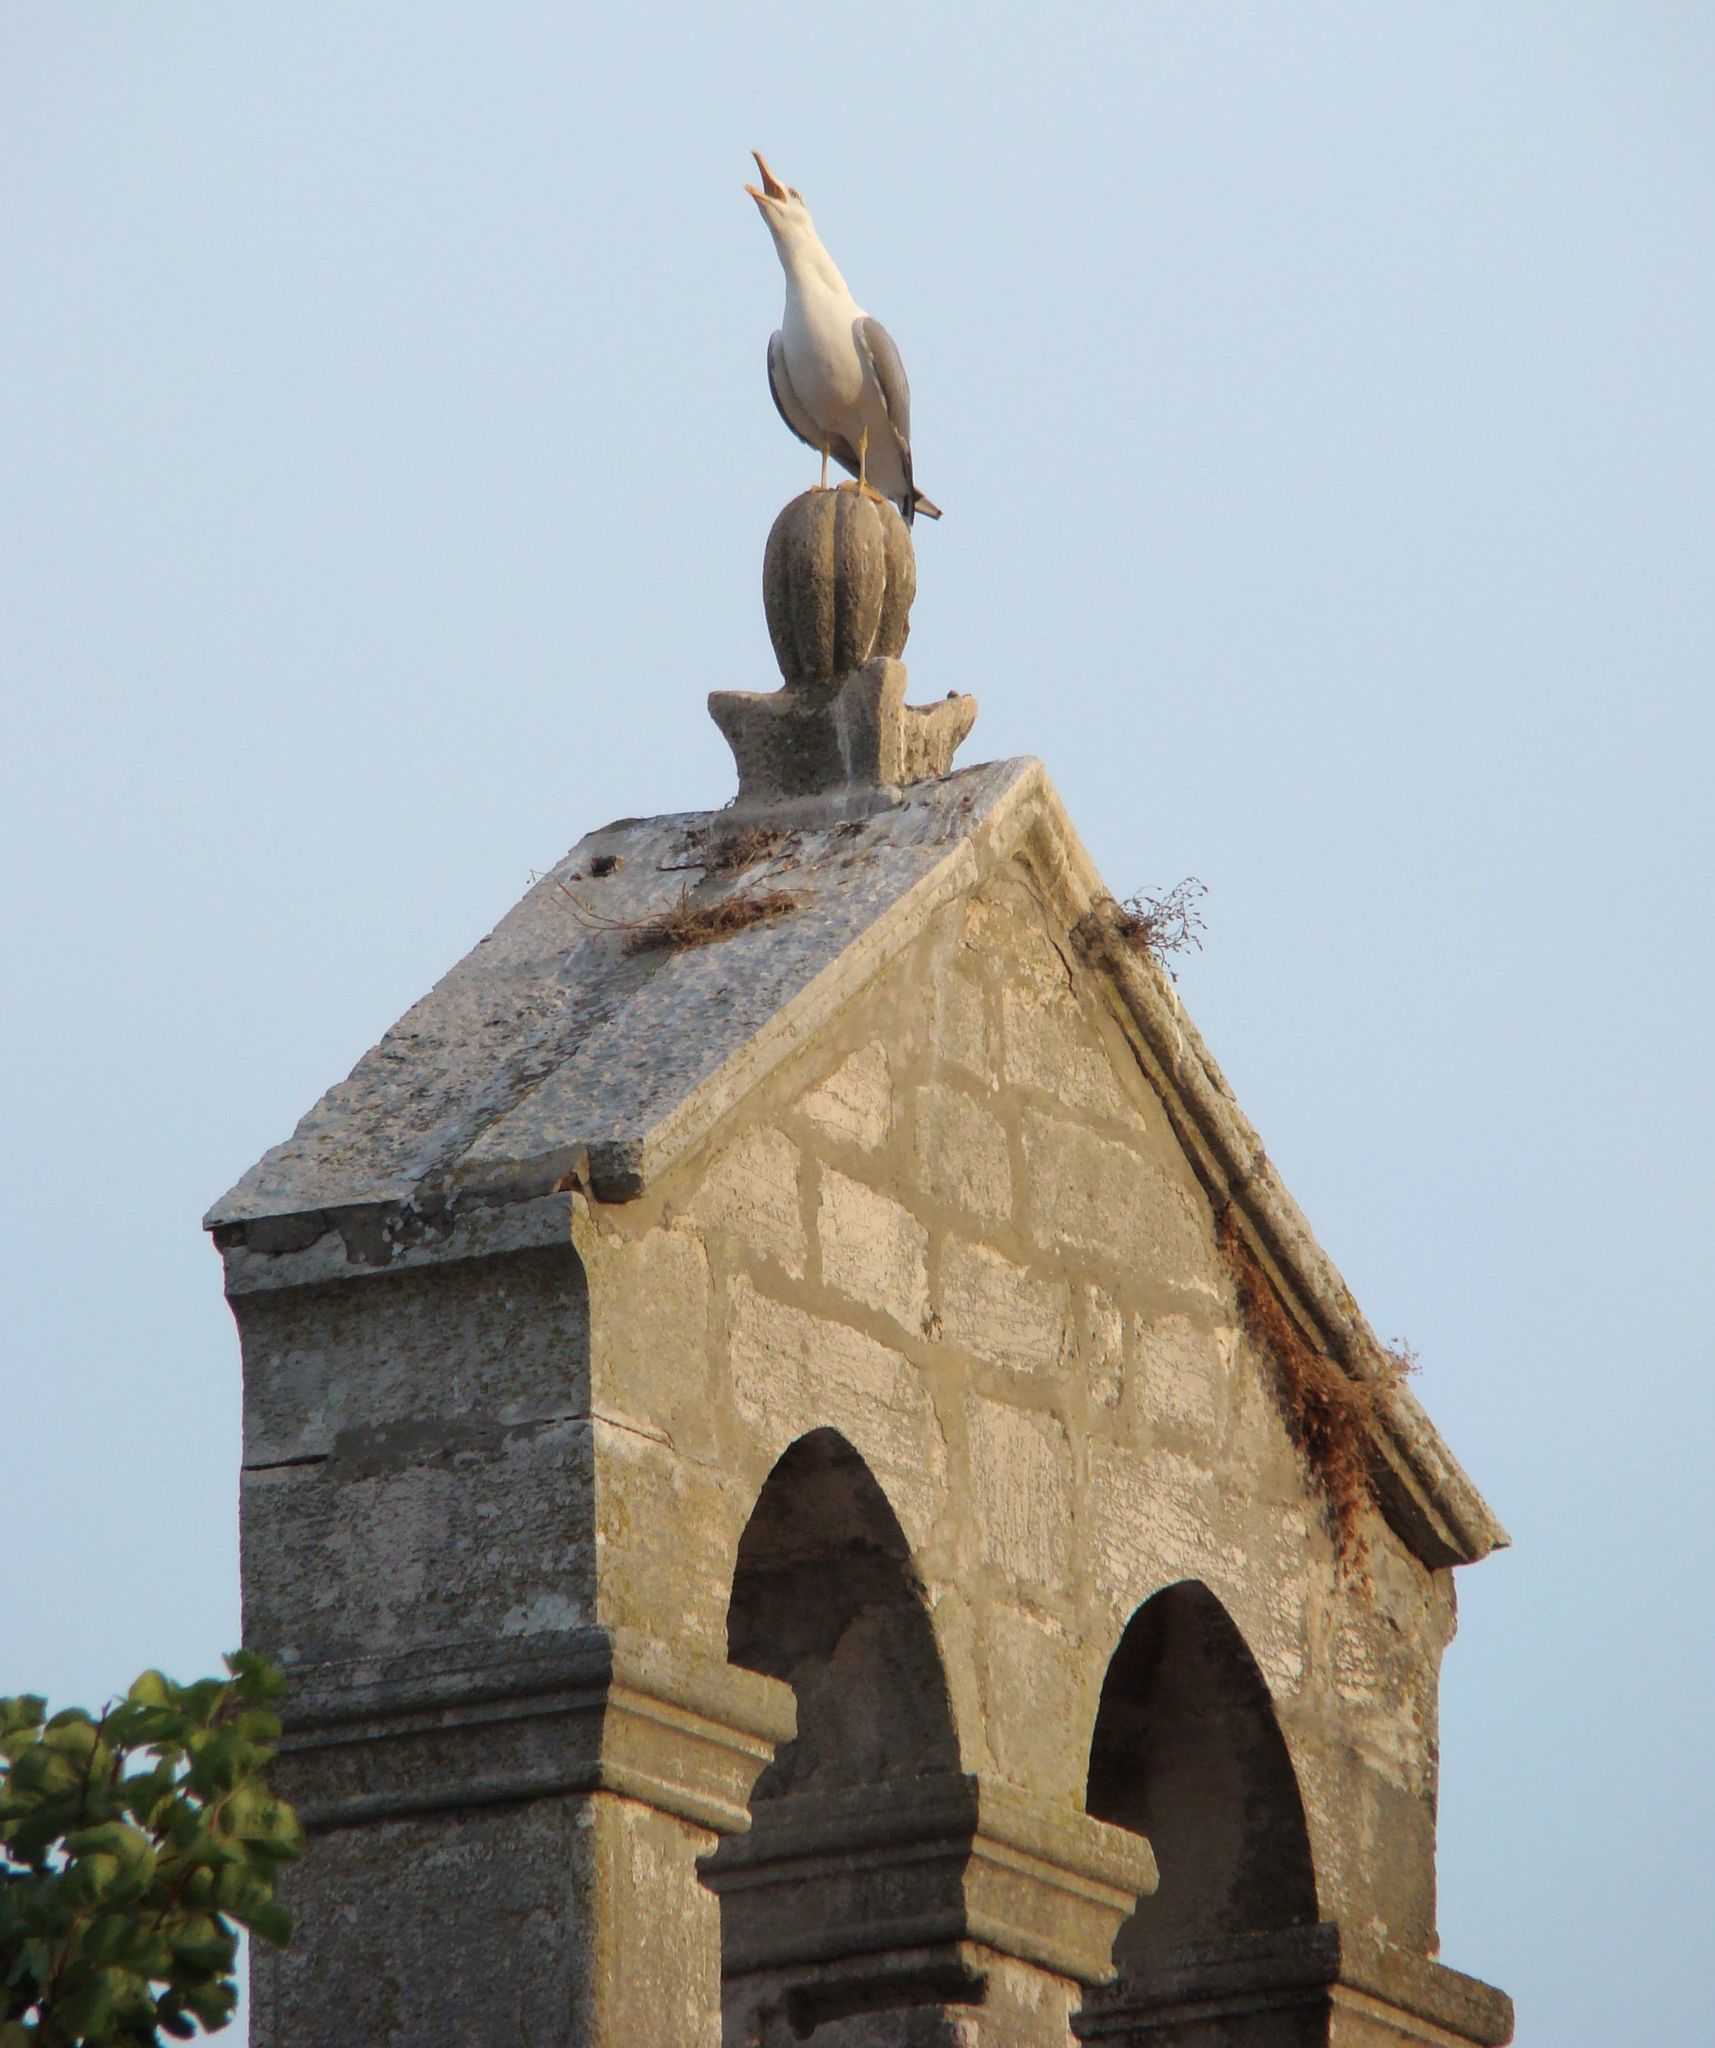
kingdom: Animalia
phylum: Chordata
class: Aves
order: Charadriiformes
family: Laridae
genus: Larus
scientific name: Larus michahellis
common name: Yellow-legged gull
